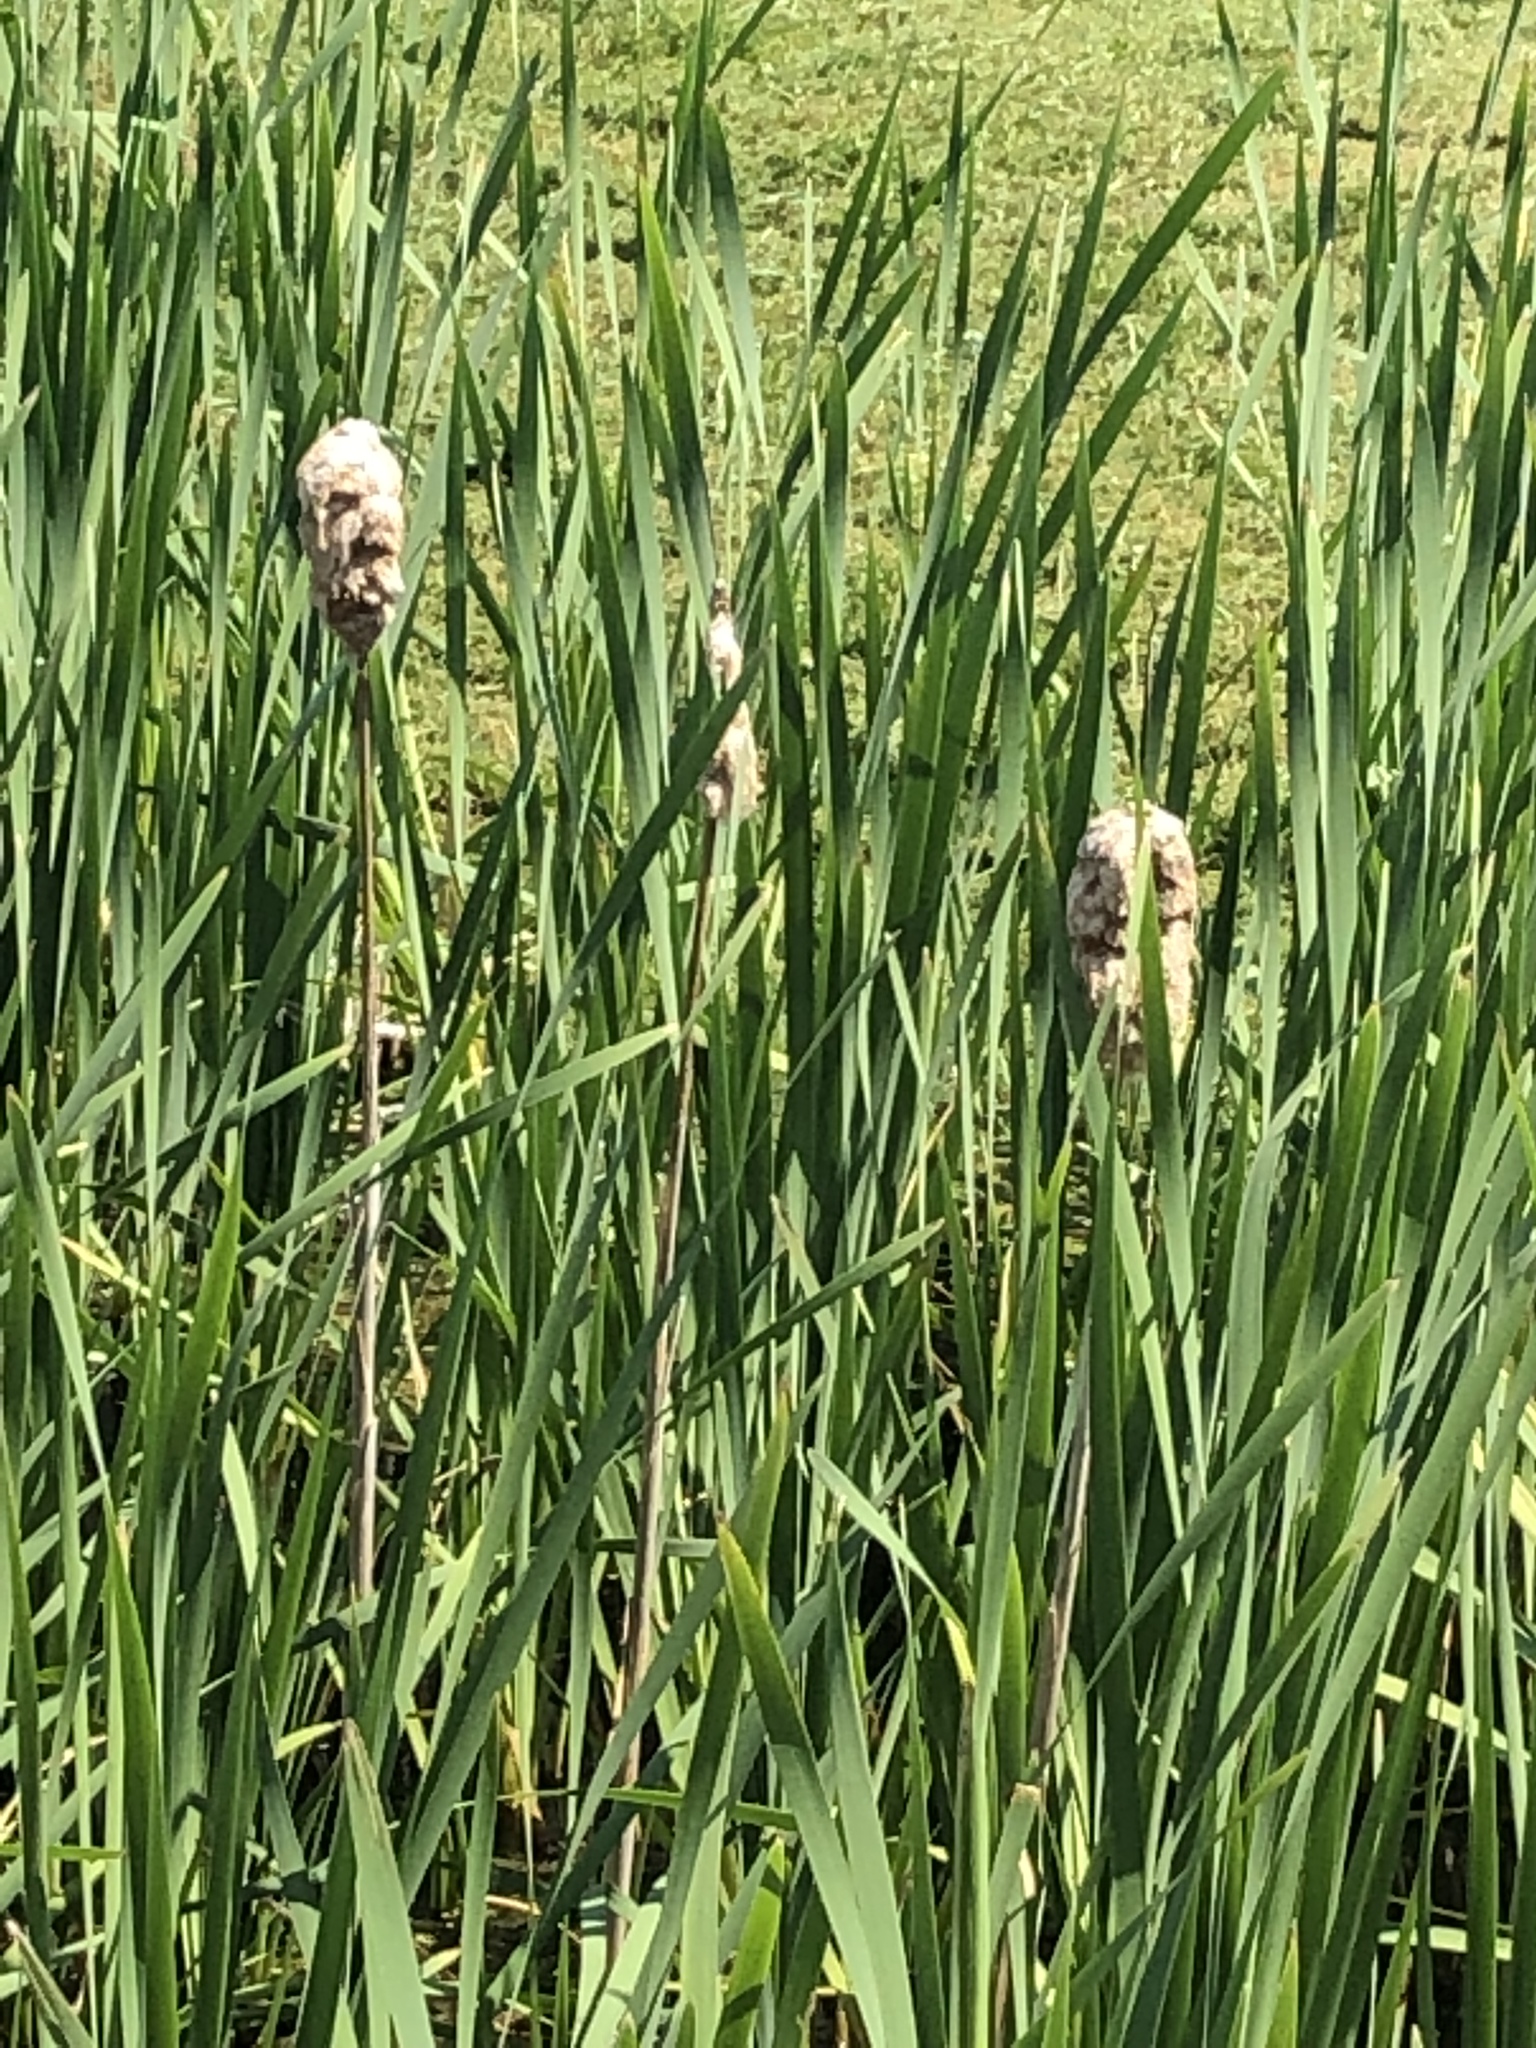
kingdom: Plantae
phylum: Tracheophyta
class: Liliopsida
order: Poales
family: Typhaceae
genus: Typha
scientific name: Typha latifolia
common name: Broadleaf cattail
